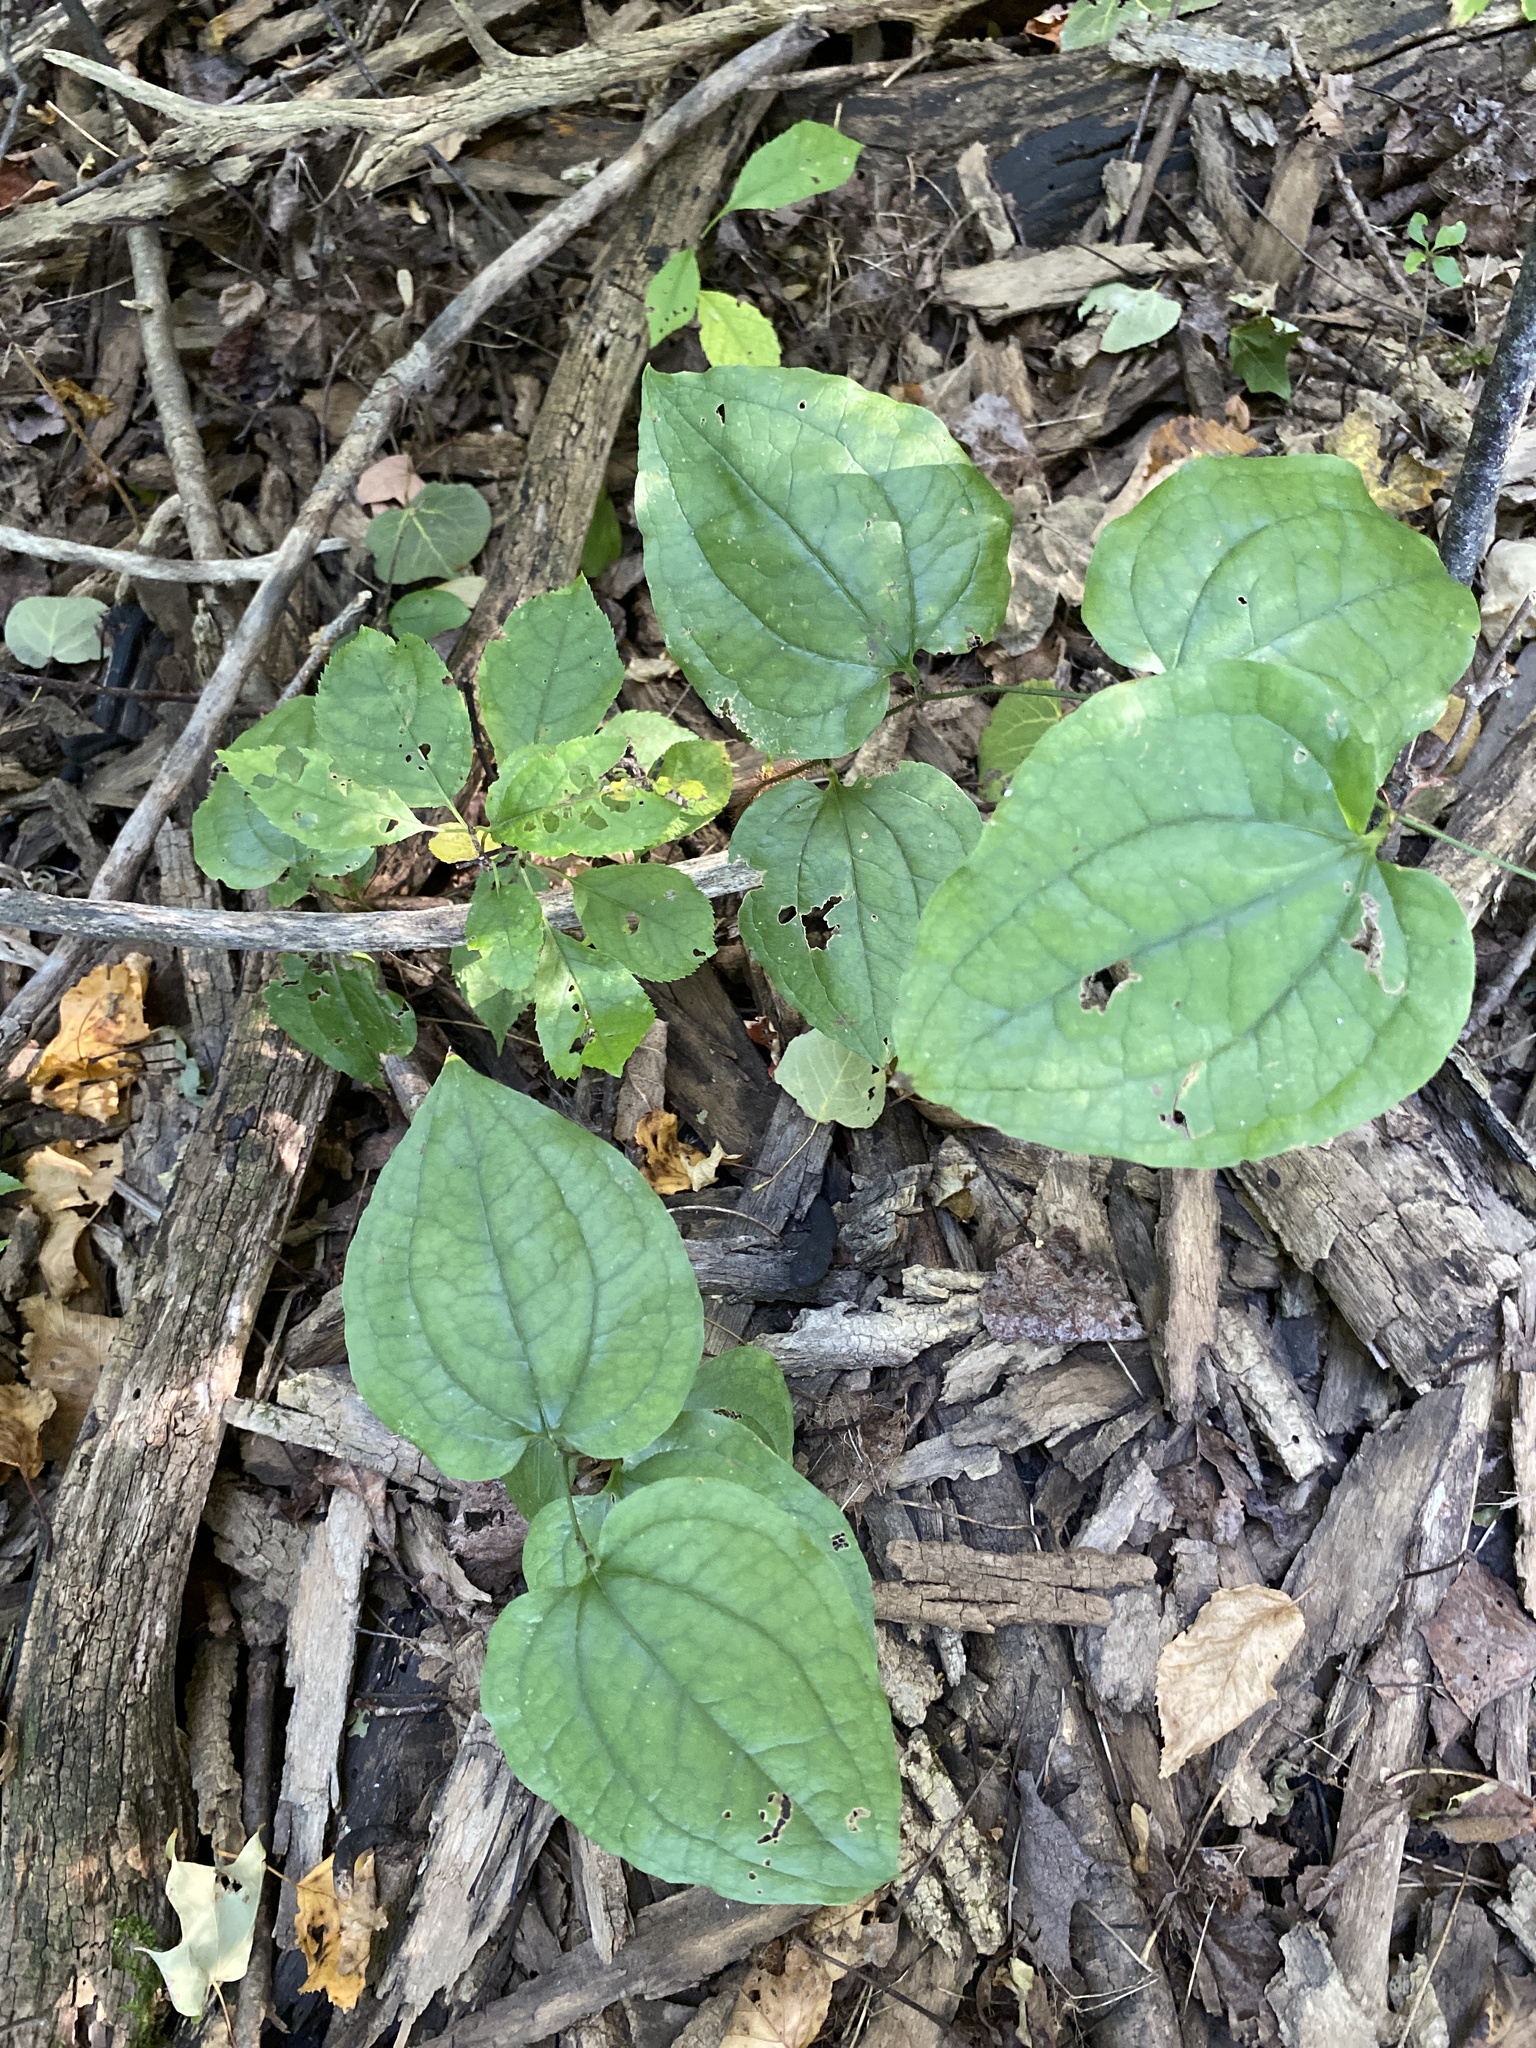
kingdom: Plantae
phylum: Tracheophyta
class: Liliopsida
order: Liliales
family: Smilacaceae
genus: Smilax
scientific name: Smilax tamnoides
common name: Hellfetter
